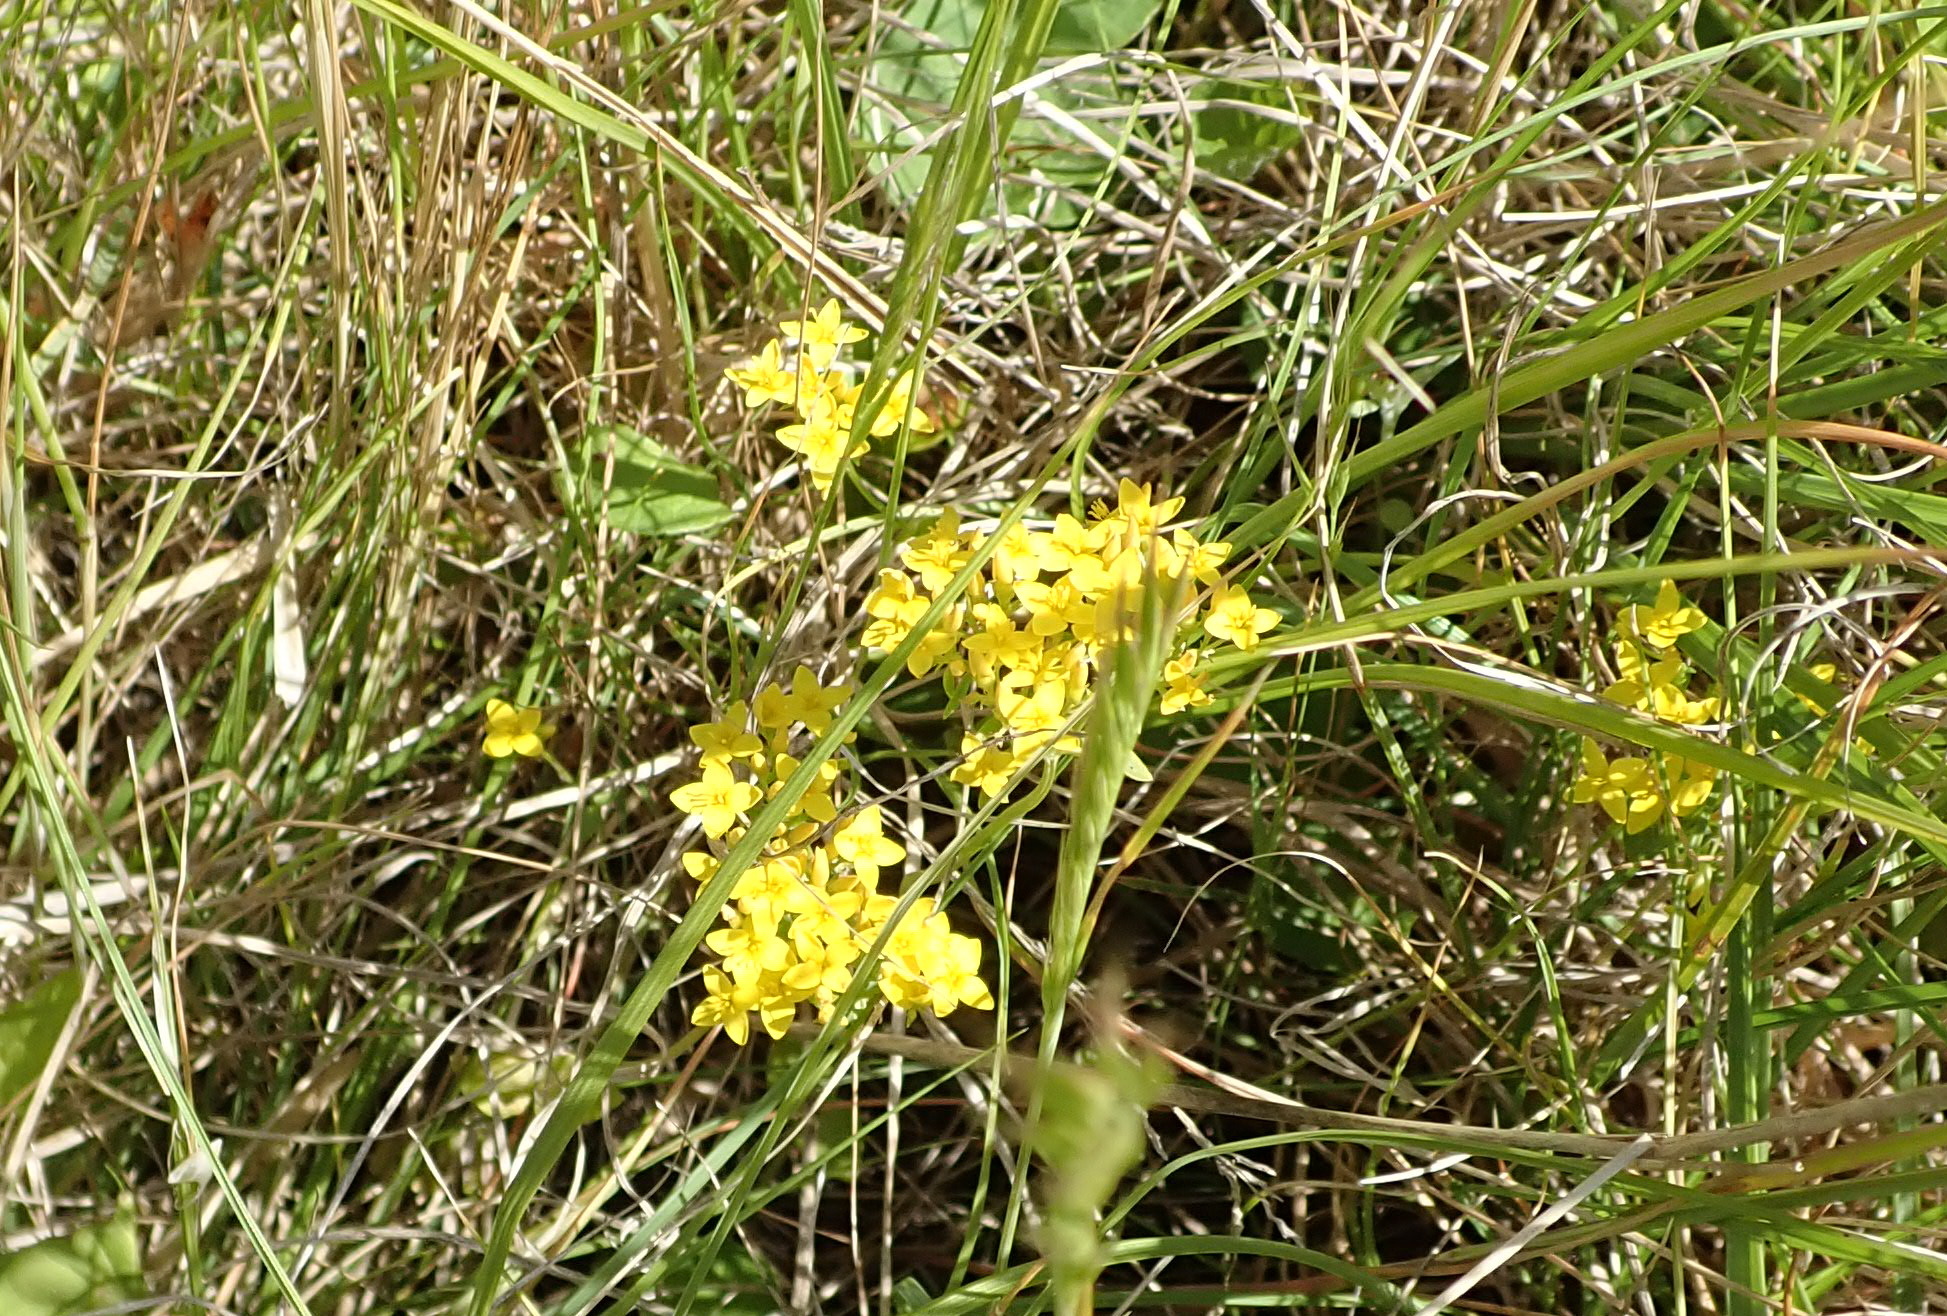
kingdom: Plantae
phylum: Tracheophyta
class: Magnoliopsida
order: Gentianales
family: Gentianaceae
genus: Sebaea
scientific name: Sebaea aurea
